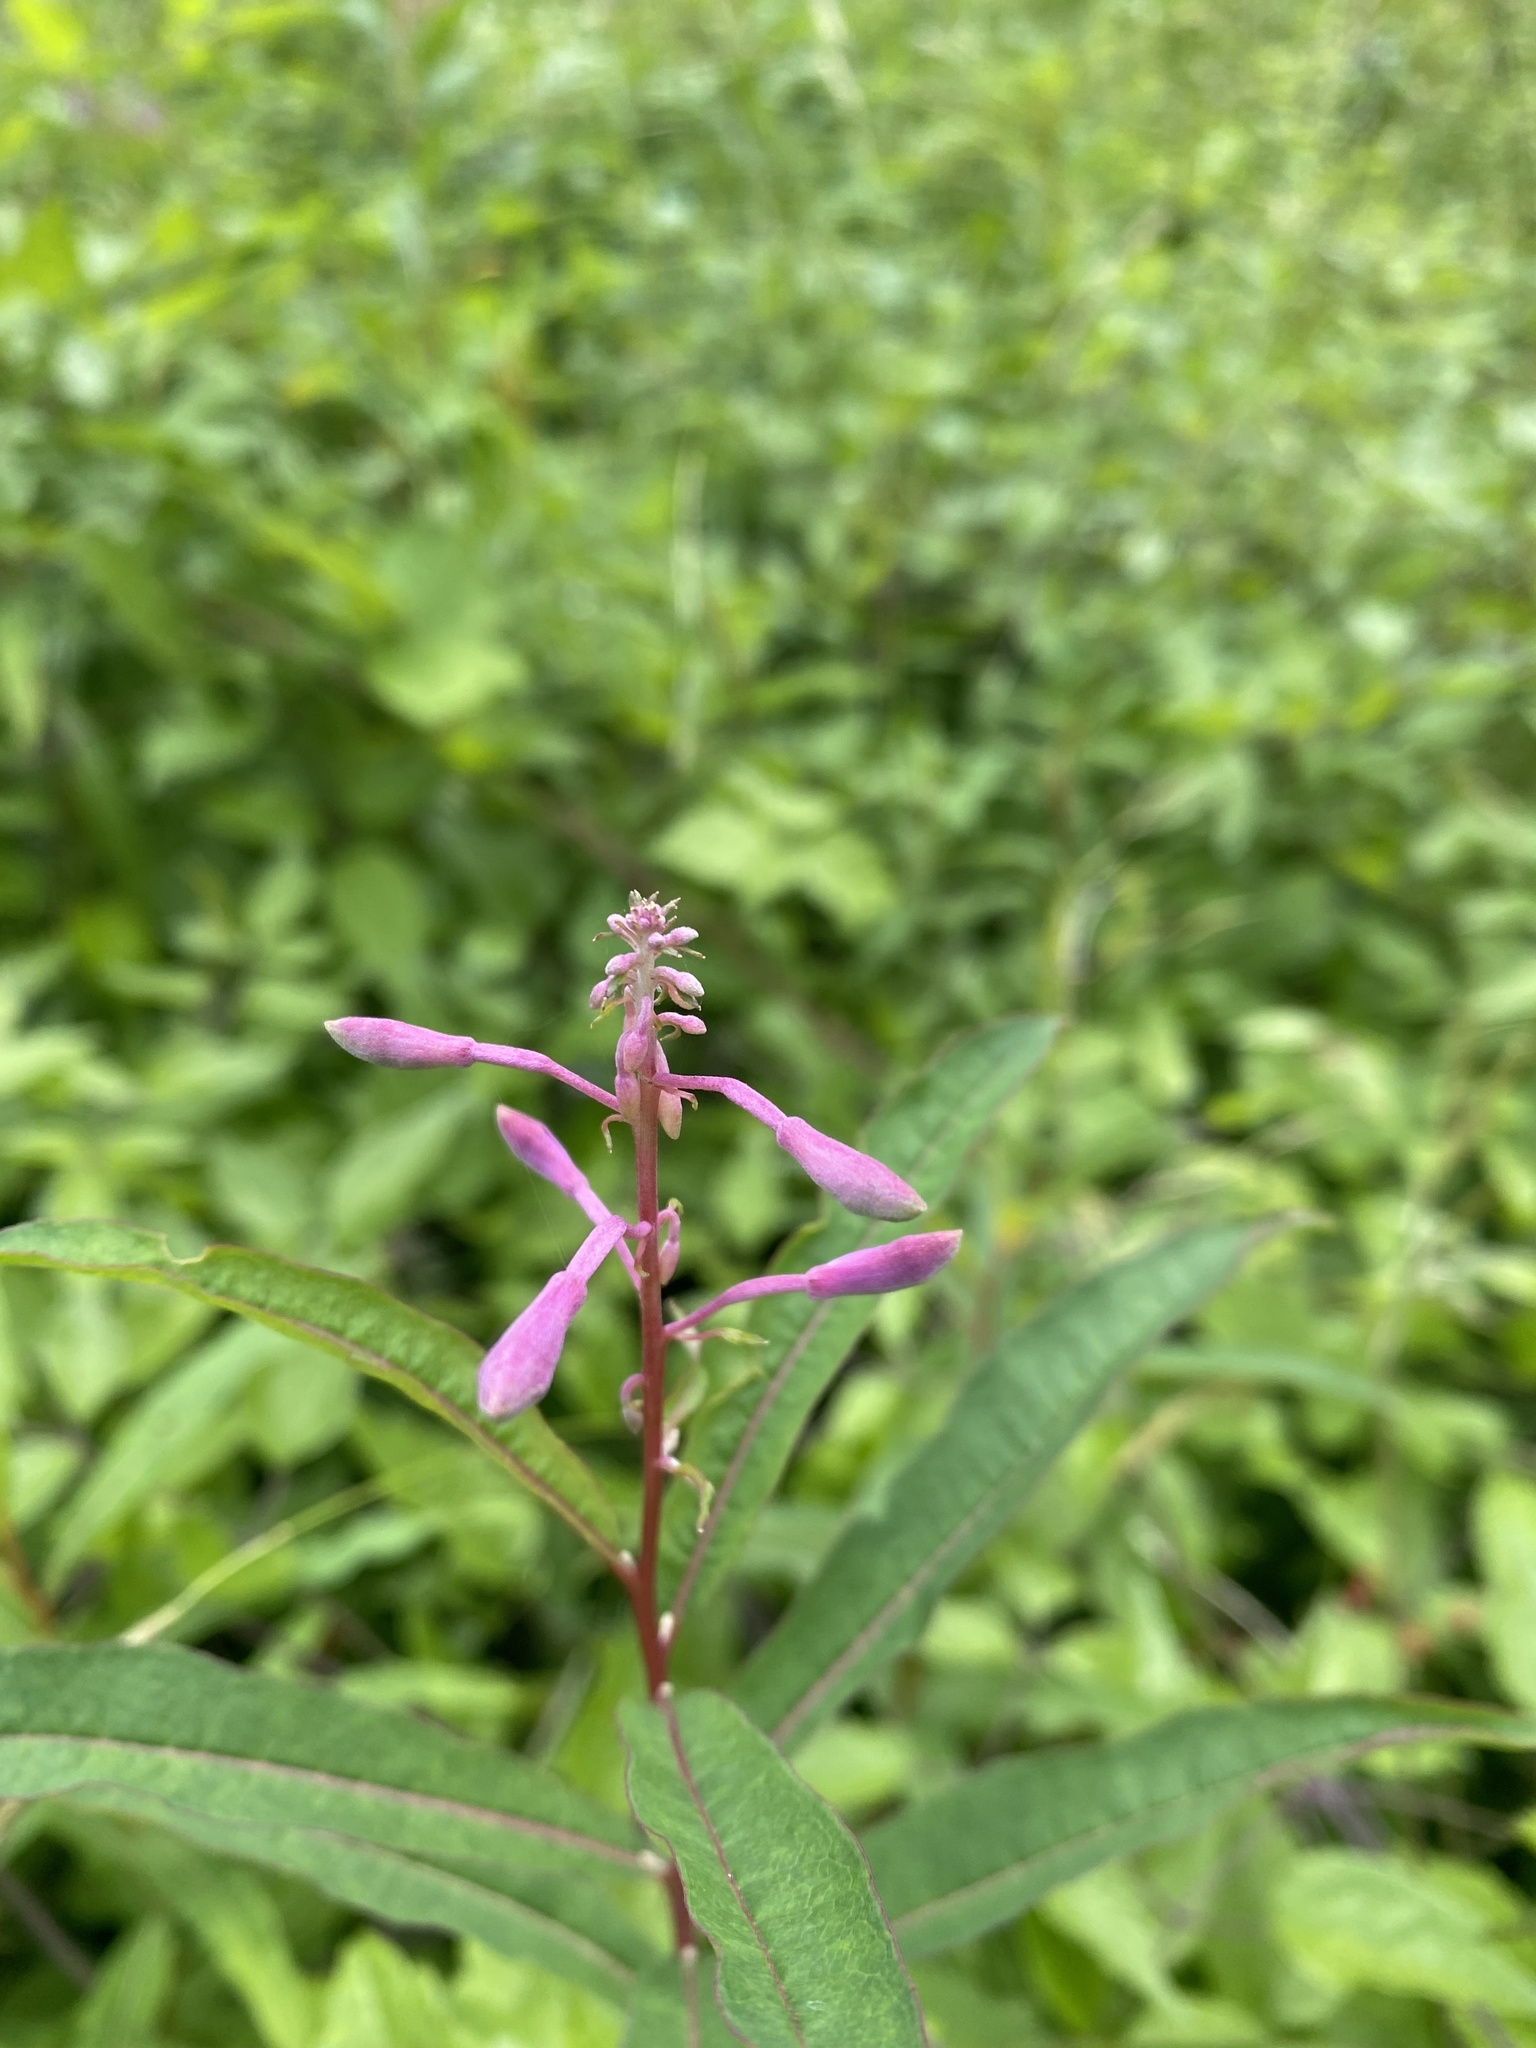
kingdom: Plantae
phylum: Tracheophyta
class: Magnoliopsida
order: Myrtales
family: Onagraceae
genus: Chamaenerion
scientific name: Chamaenerion angustifolium
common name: Fireweed
